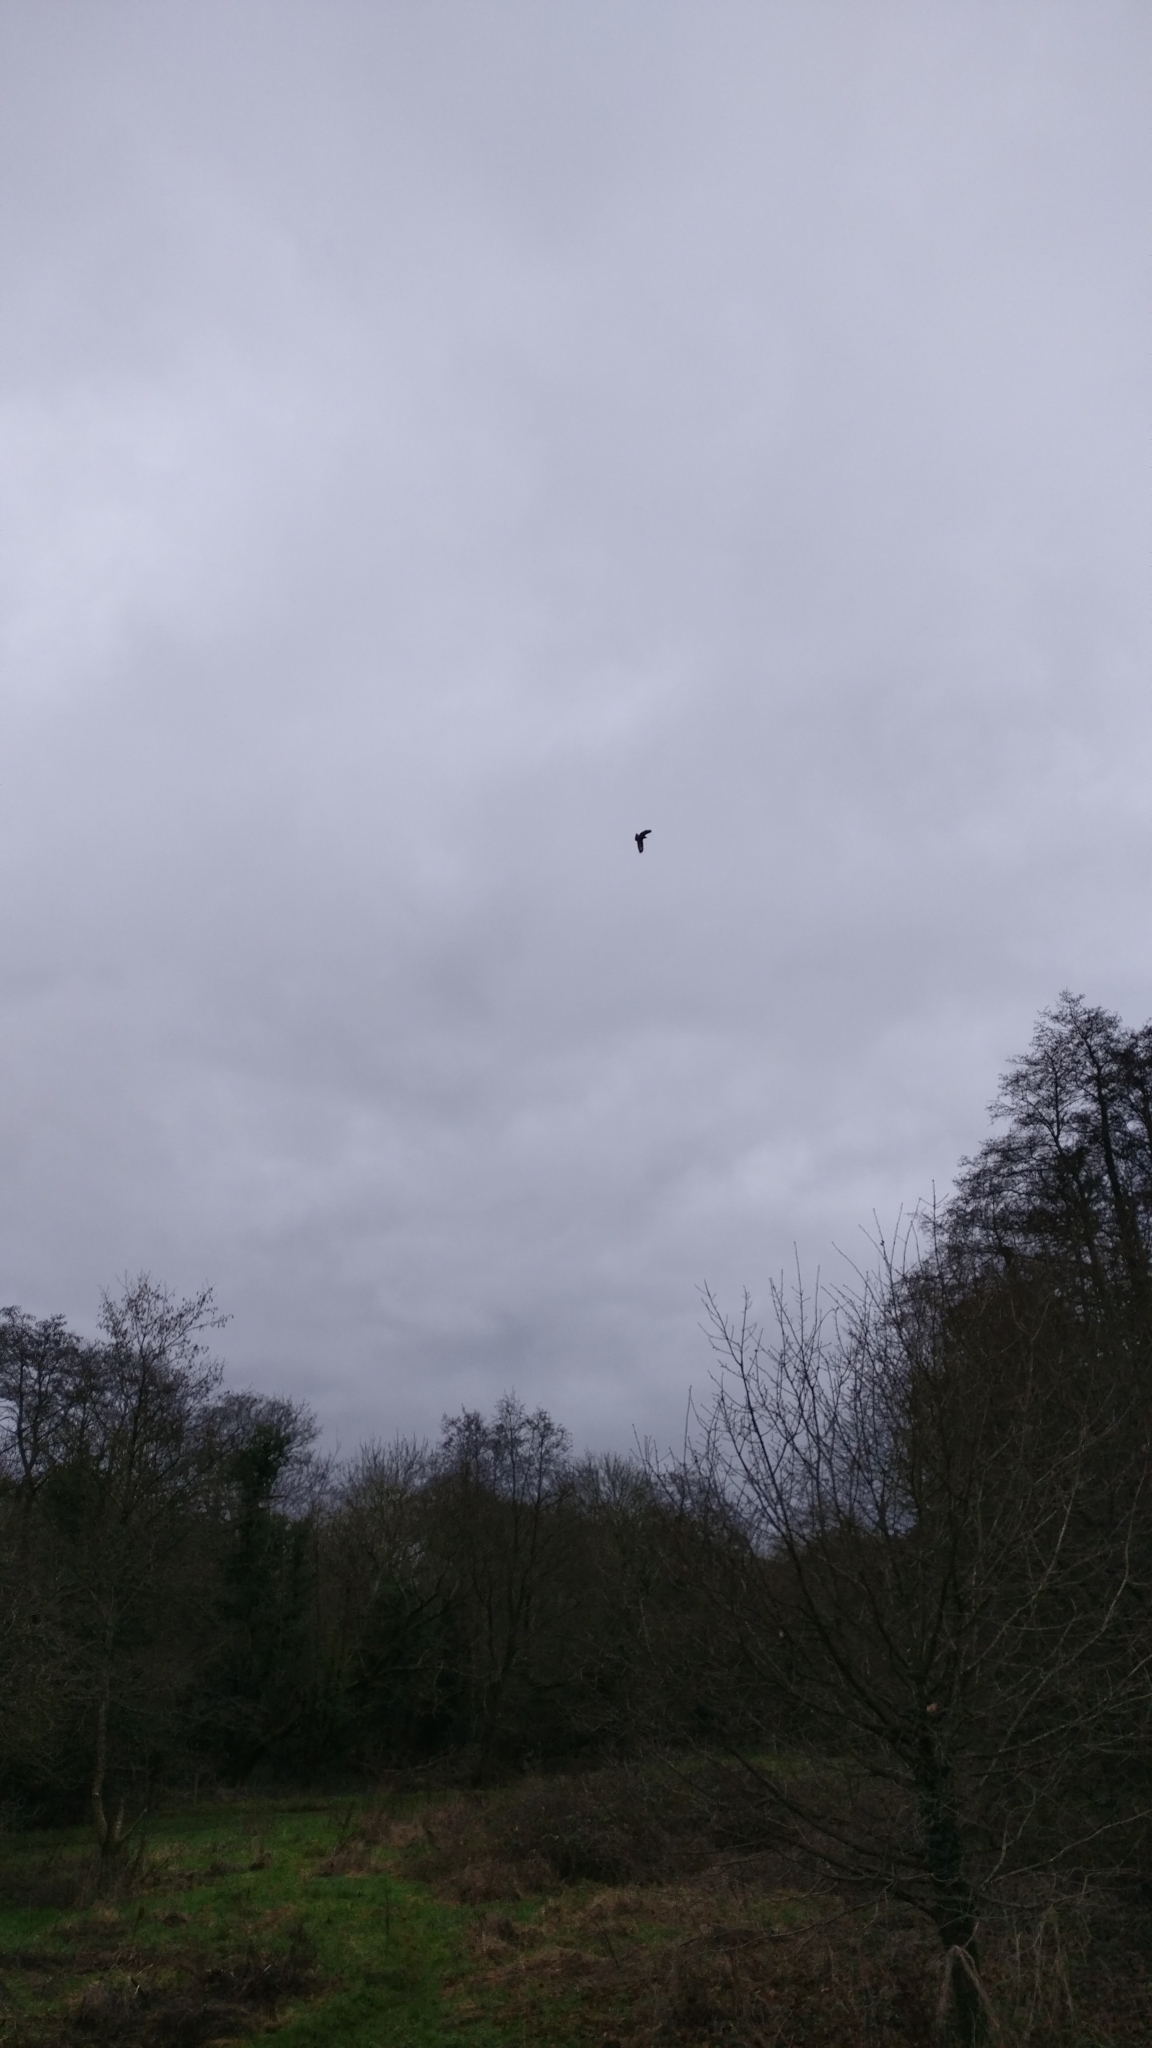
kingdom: Animalia
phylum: Chordata
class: Aves
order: Accipitriformes
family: Accipitridae
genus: Buteo
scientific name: Buteo buteo
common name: Common buzzard
